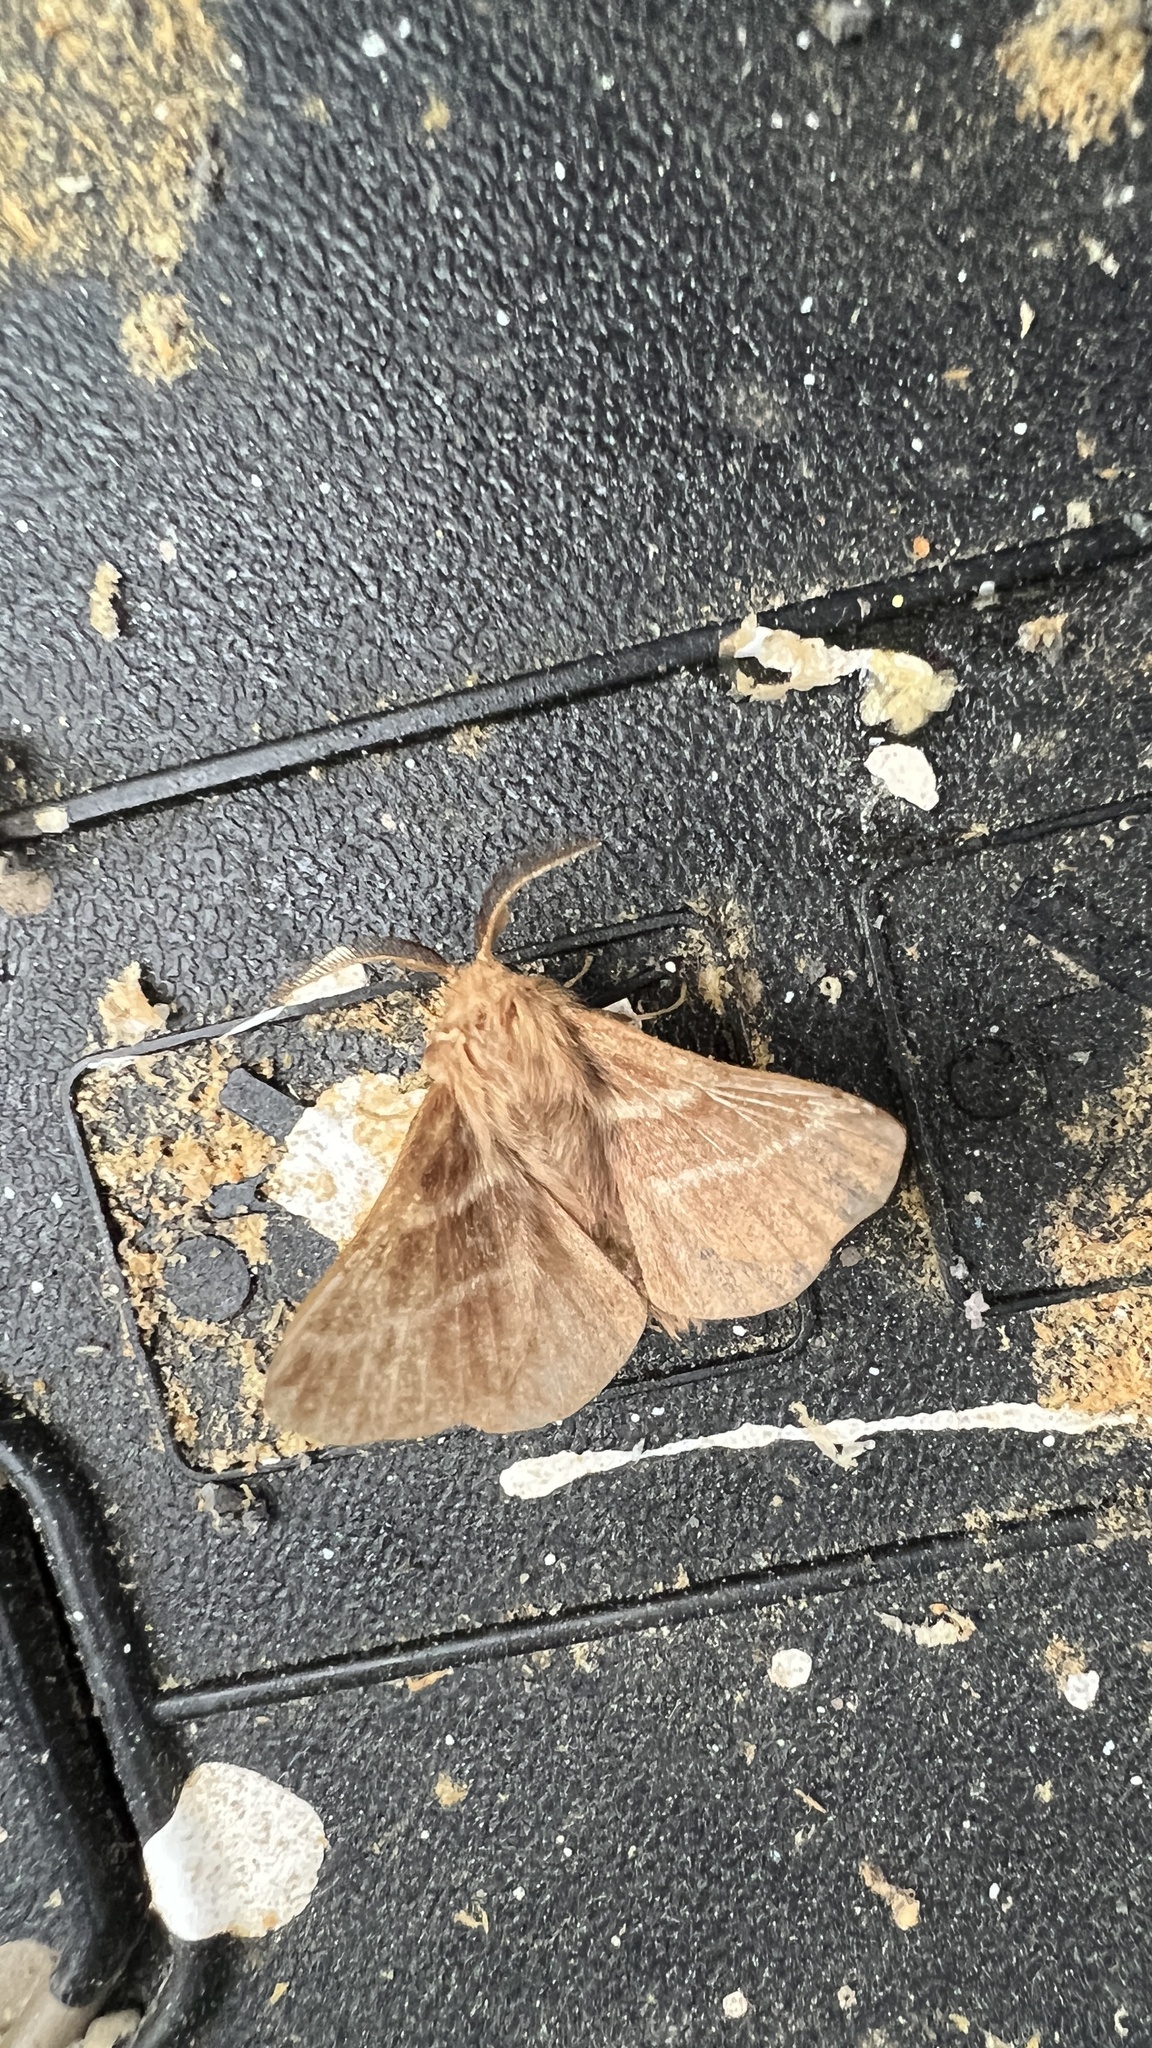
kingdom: Animalia
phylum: Arthropoda
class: Insecta
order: Lepidoptera
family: Lasiocampidae
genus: Malacosoma
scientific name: Malacosoma americana
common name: Eastern tent caterpillar moth
